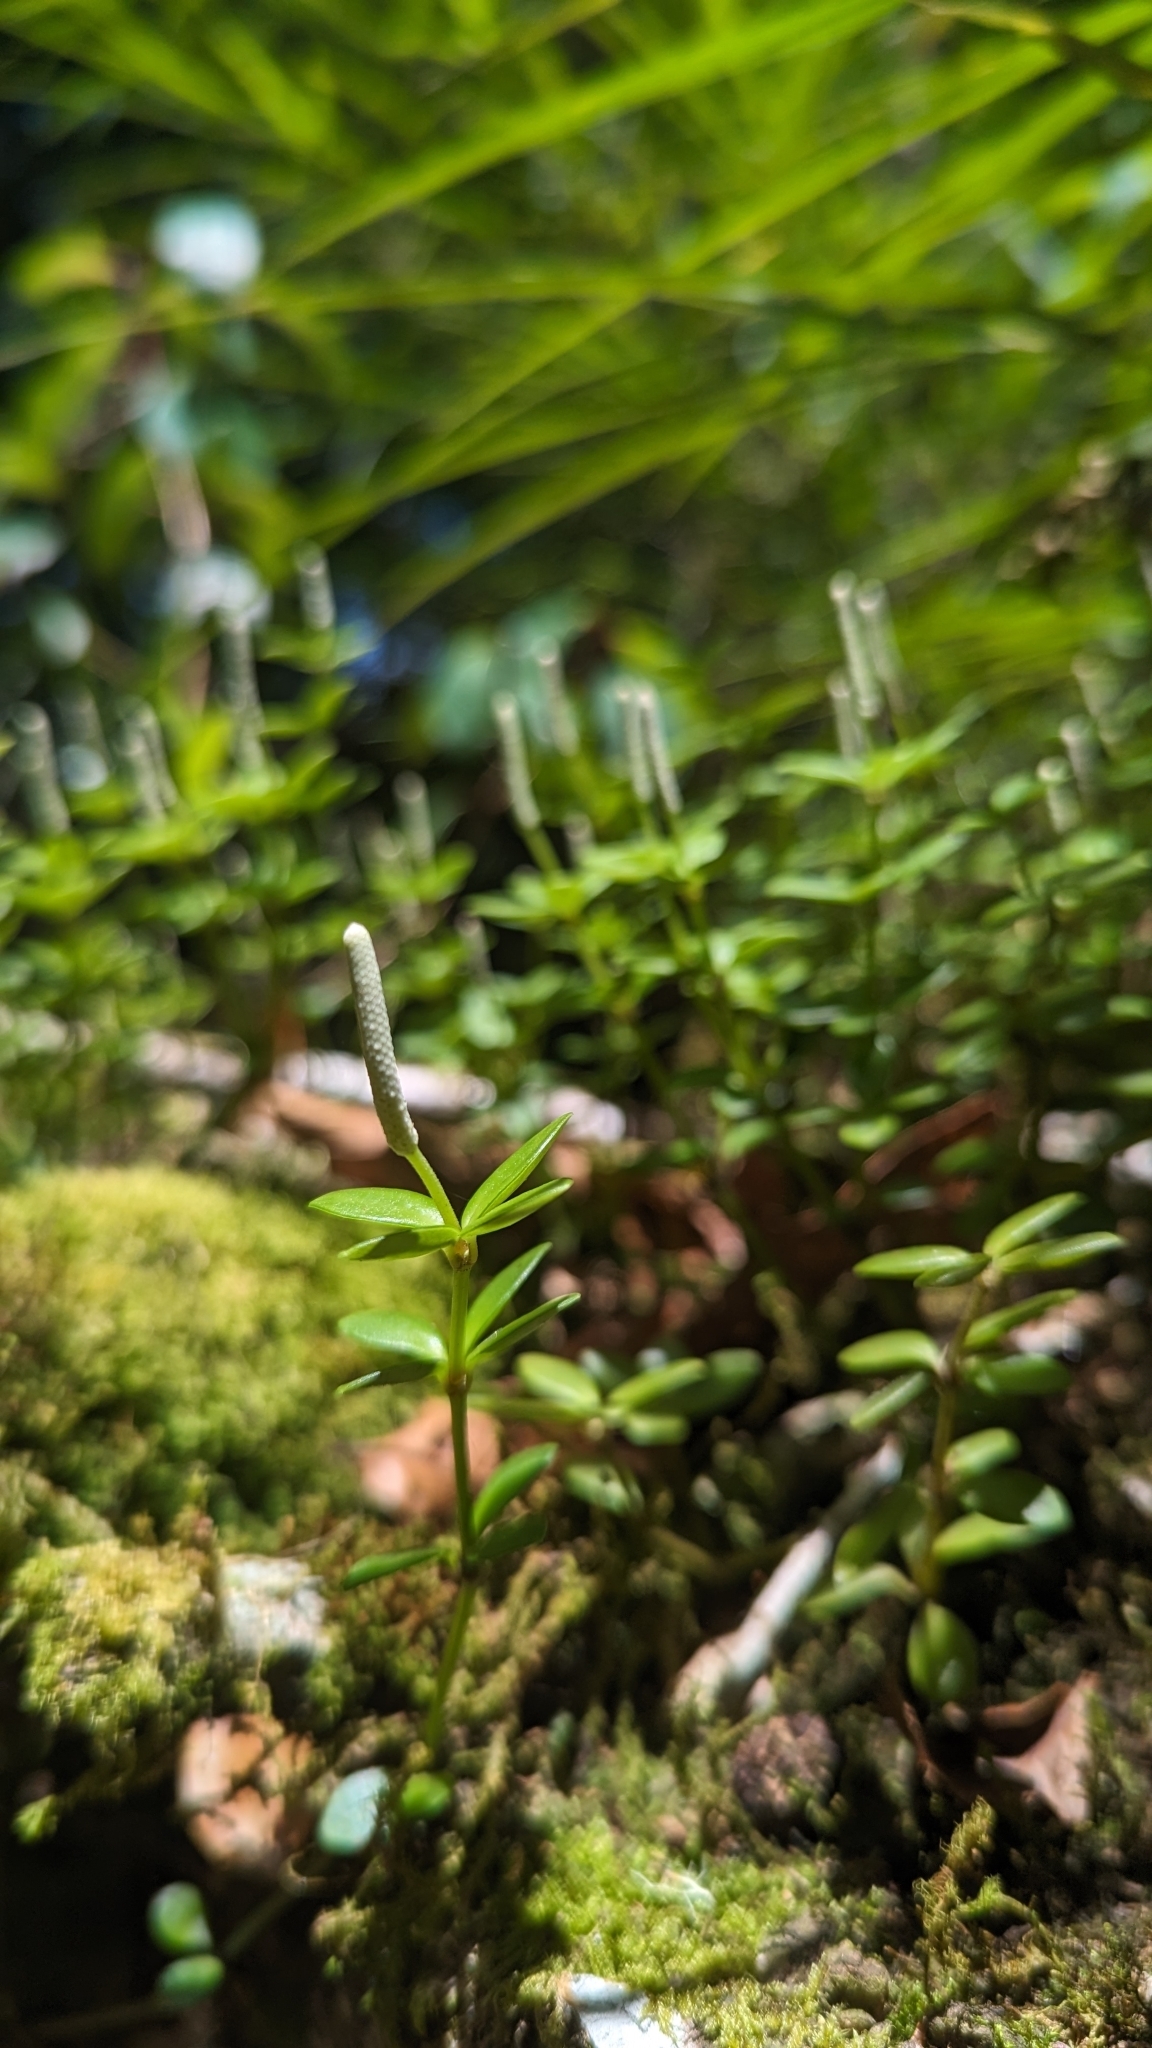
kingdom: Plantae
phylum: Tracheophyta
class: Magnoliopsida
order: Piperales
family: Piperaceae
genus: Peperomia
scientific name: Peperomia tetraphylla
